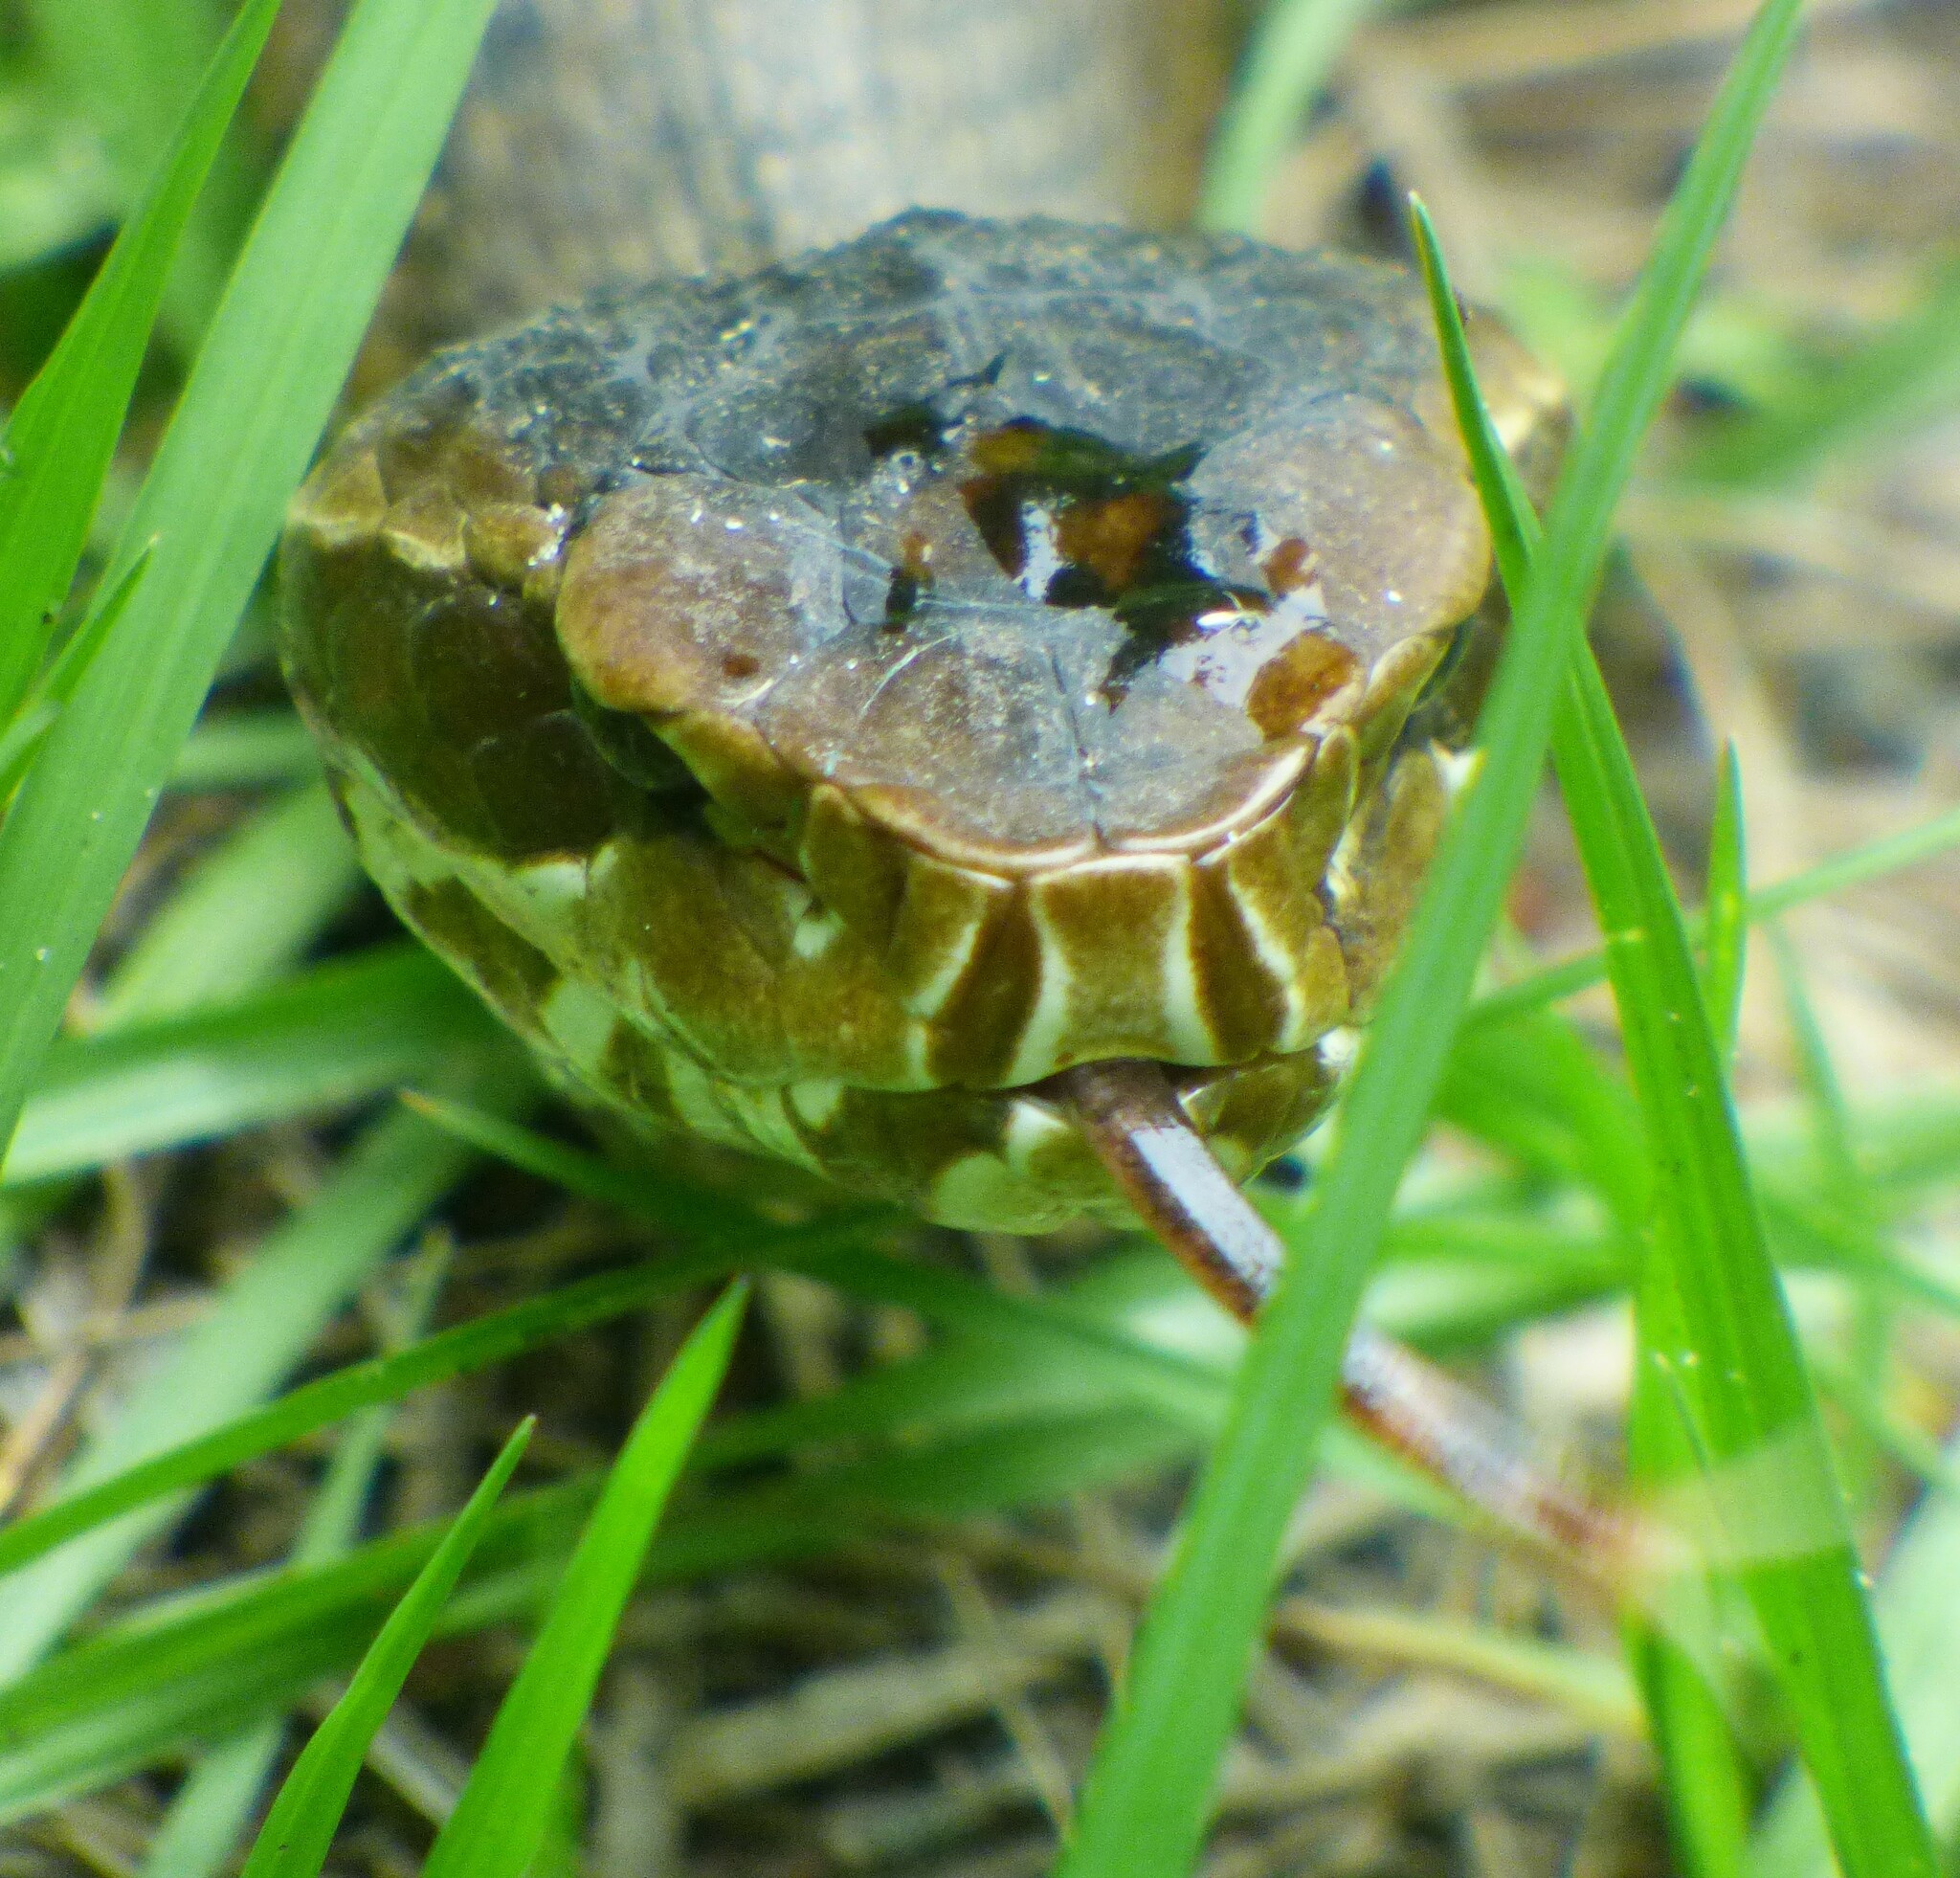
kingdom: Animalia
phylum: Chordata
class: Squamata
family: Viperidae
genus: Agkistrodon
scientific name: Agkistrodon conanti
